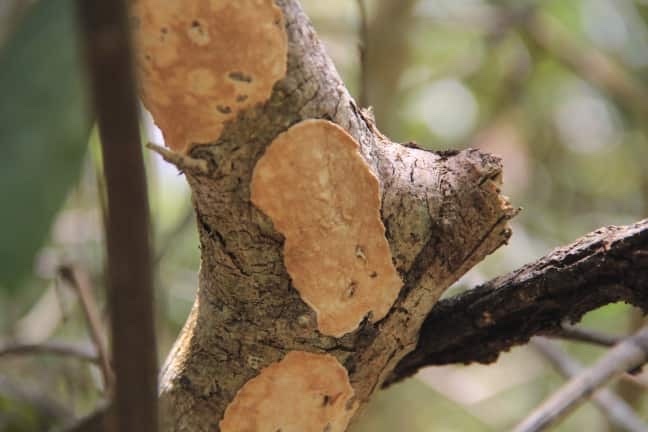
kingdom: Fungi
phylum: Basidiomycota
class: Agaricomycetes
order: Polyporales
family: Irpicaceae
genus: Irpex
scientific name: Irpex lacteus
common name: Milk-white toothed polypore
